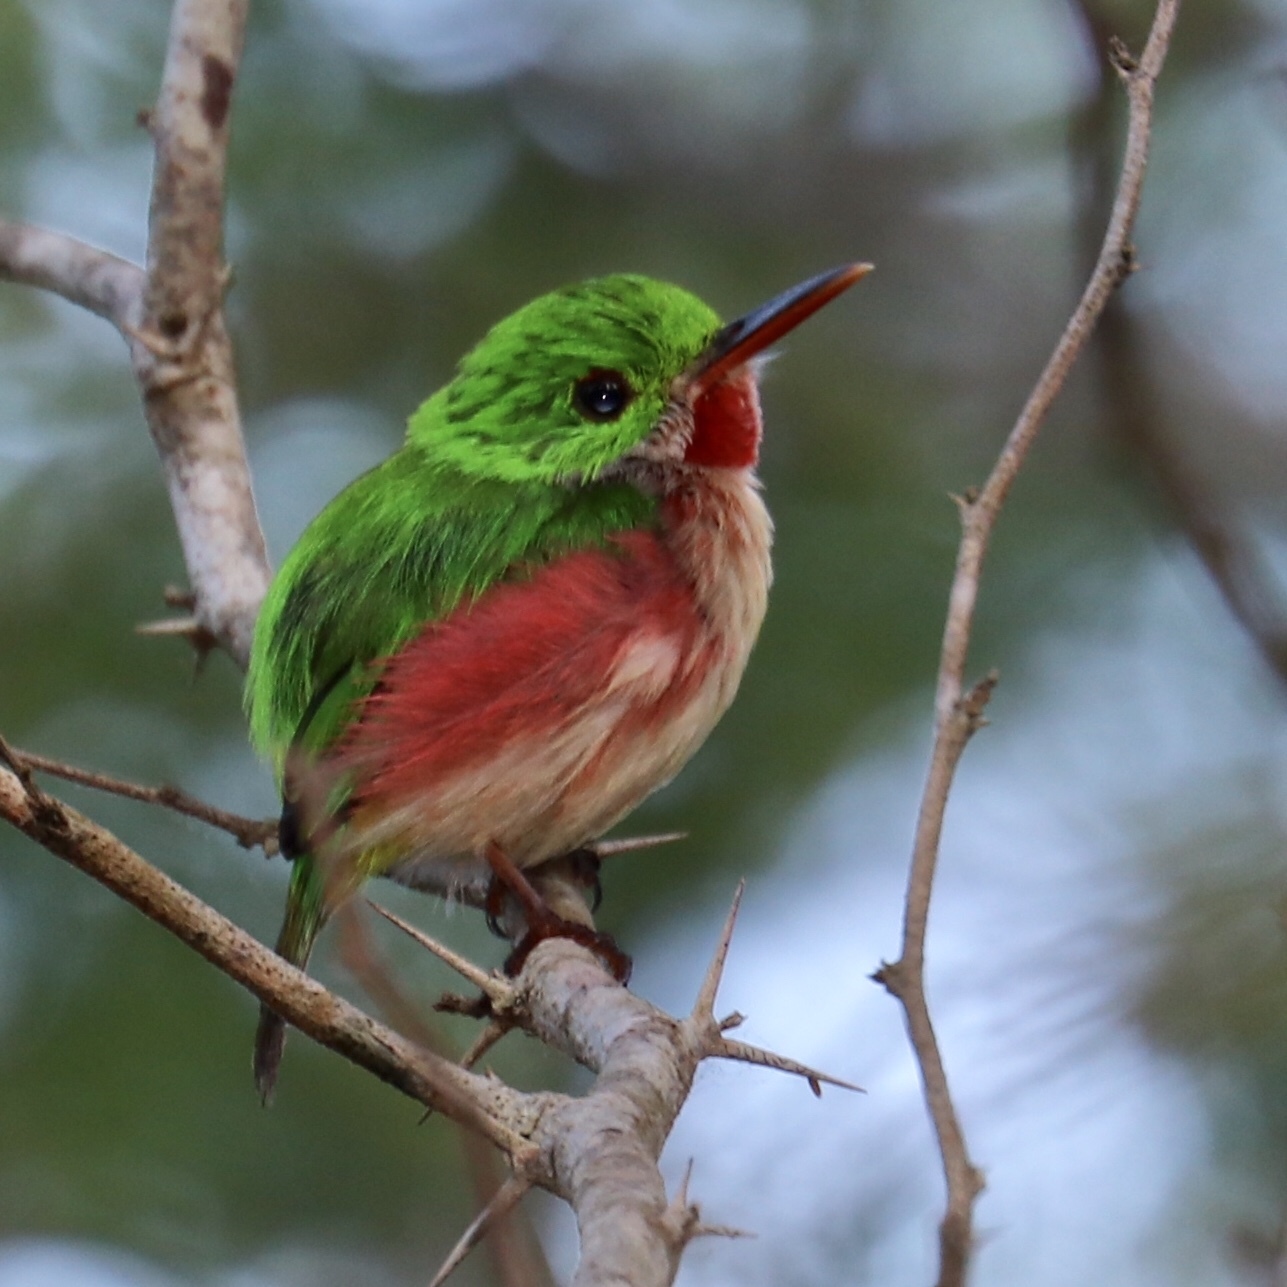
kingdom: Animalia
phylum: Chordata
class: Aves
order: Coraciiformes
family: Todidae
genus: Todus
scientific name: Todus subulatus
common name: Broad-billed tody
